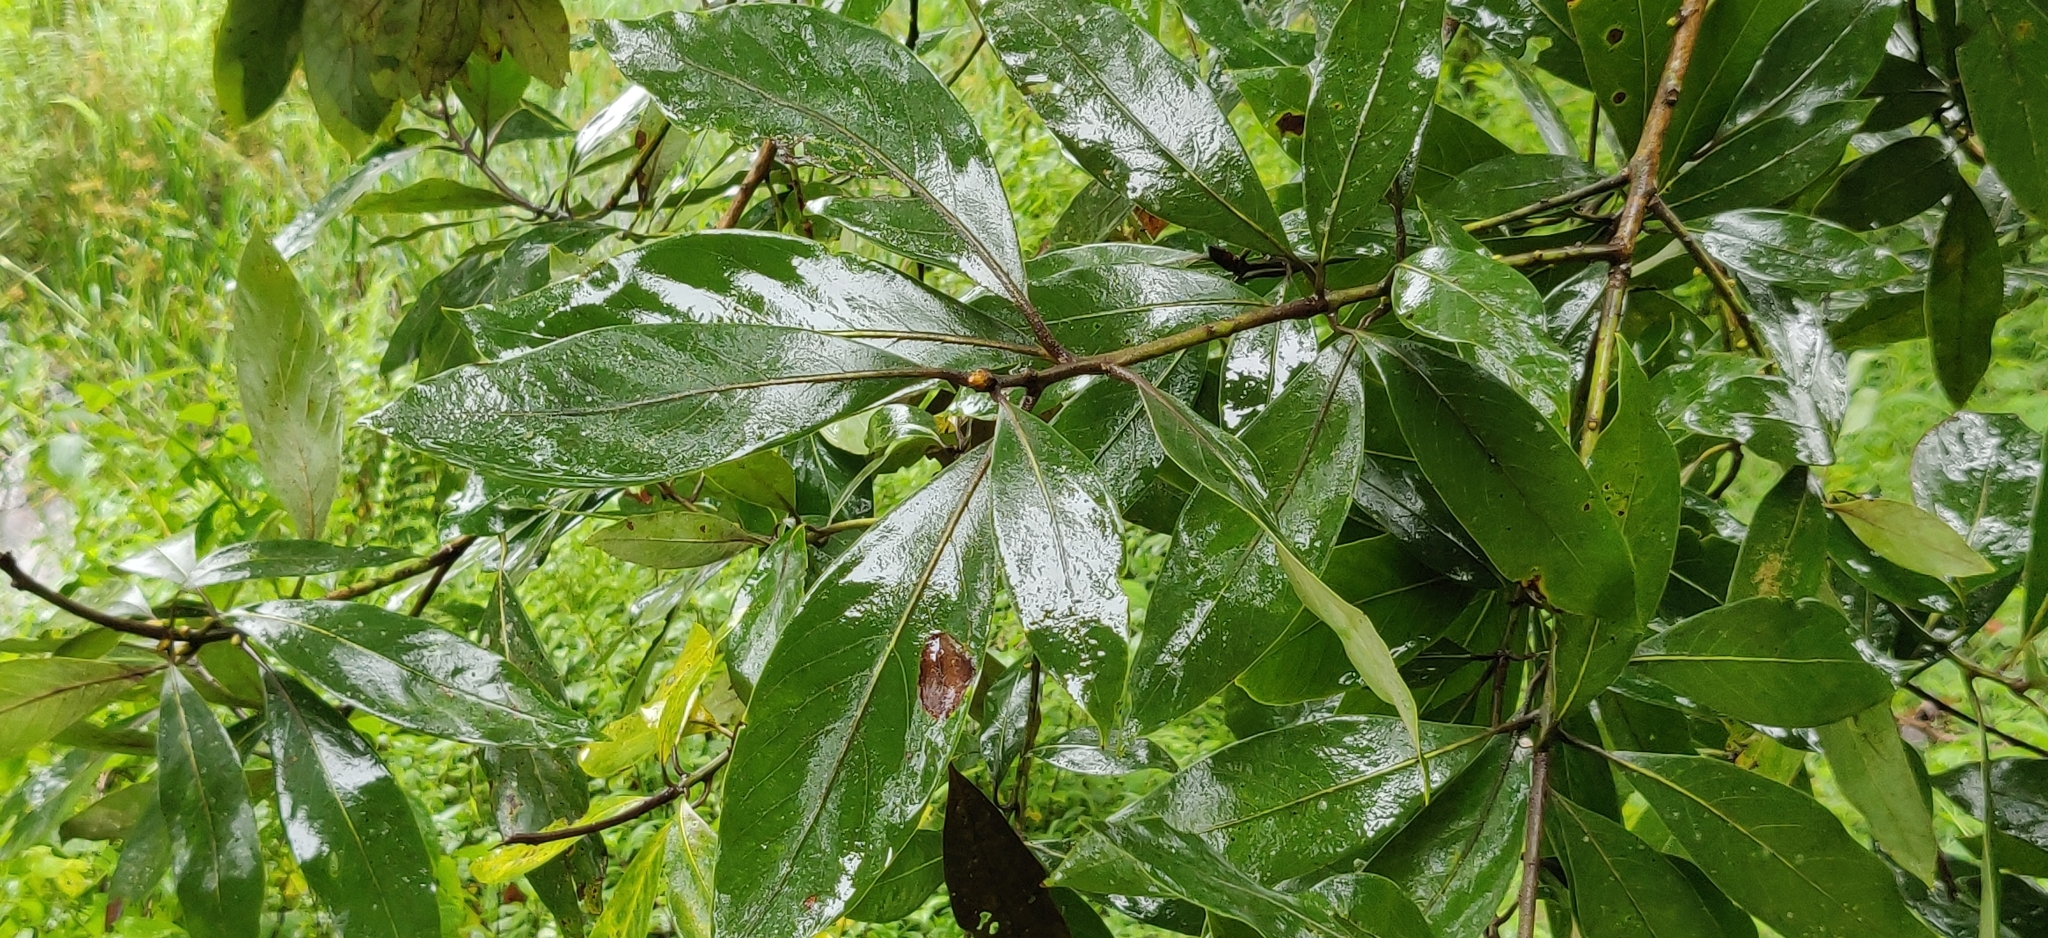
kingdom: Plantae
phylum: Tracheophyta
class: Magnoliopsida
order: Laurales
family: Lauraceae
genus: Actinodaphne
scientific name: Actinodaphne wightiana
